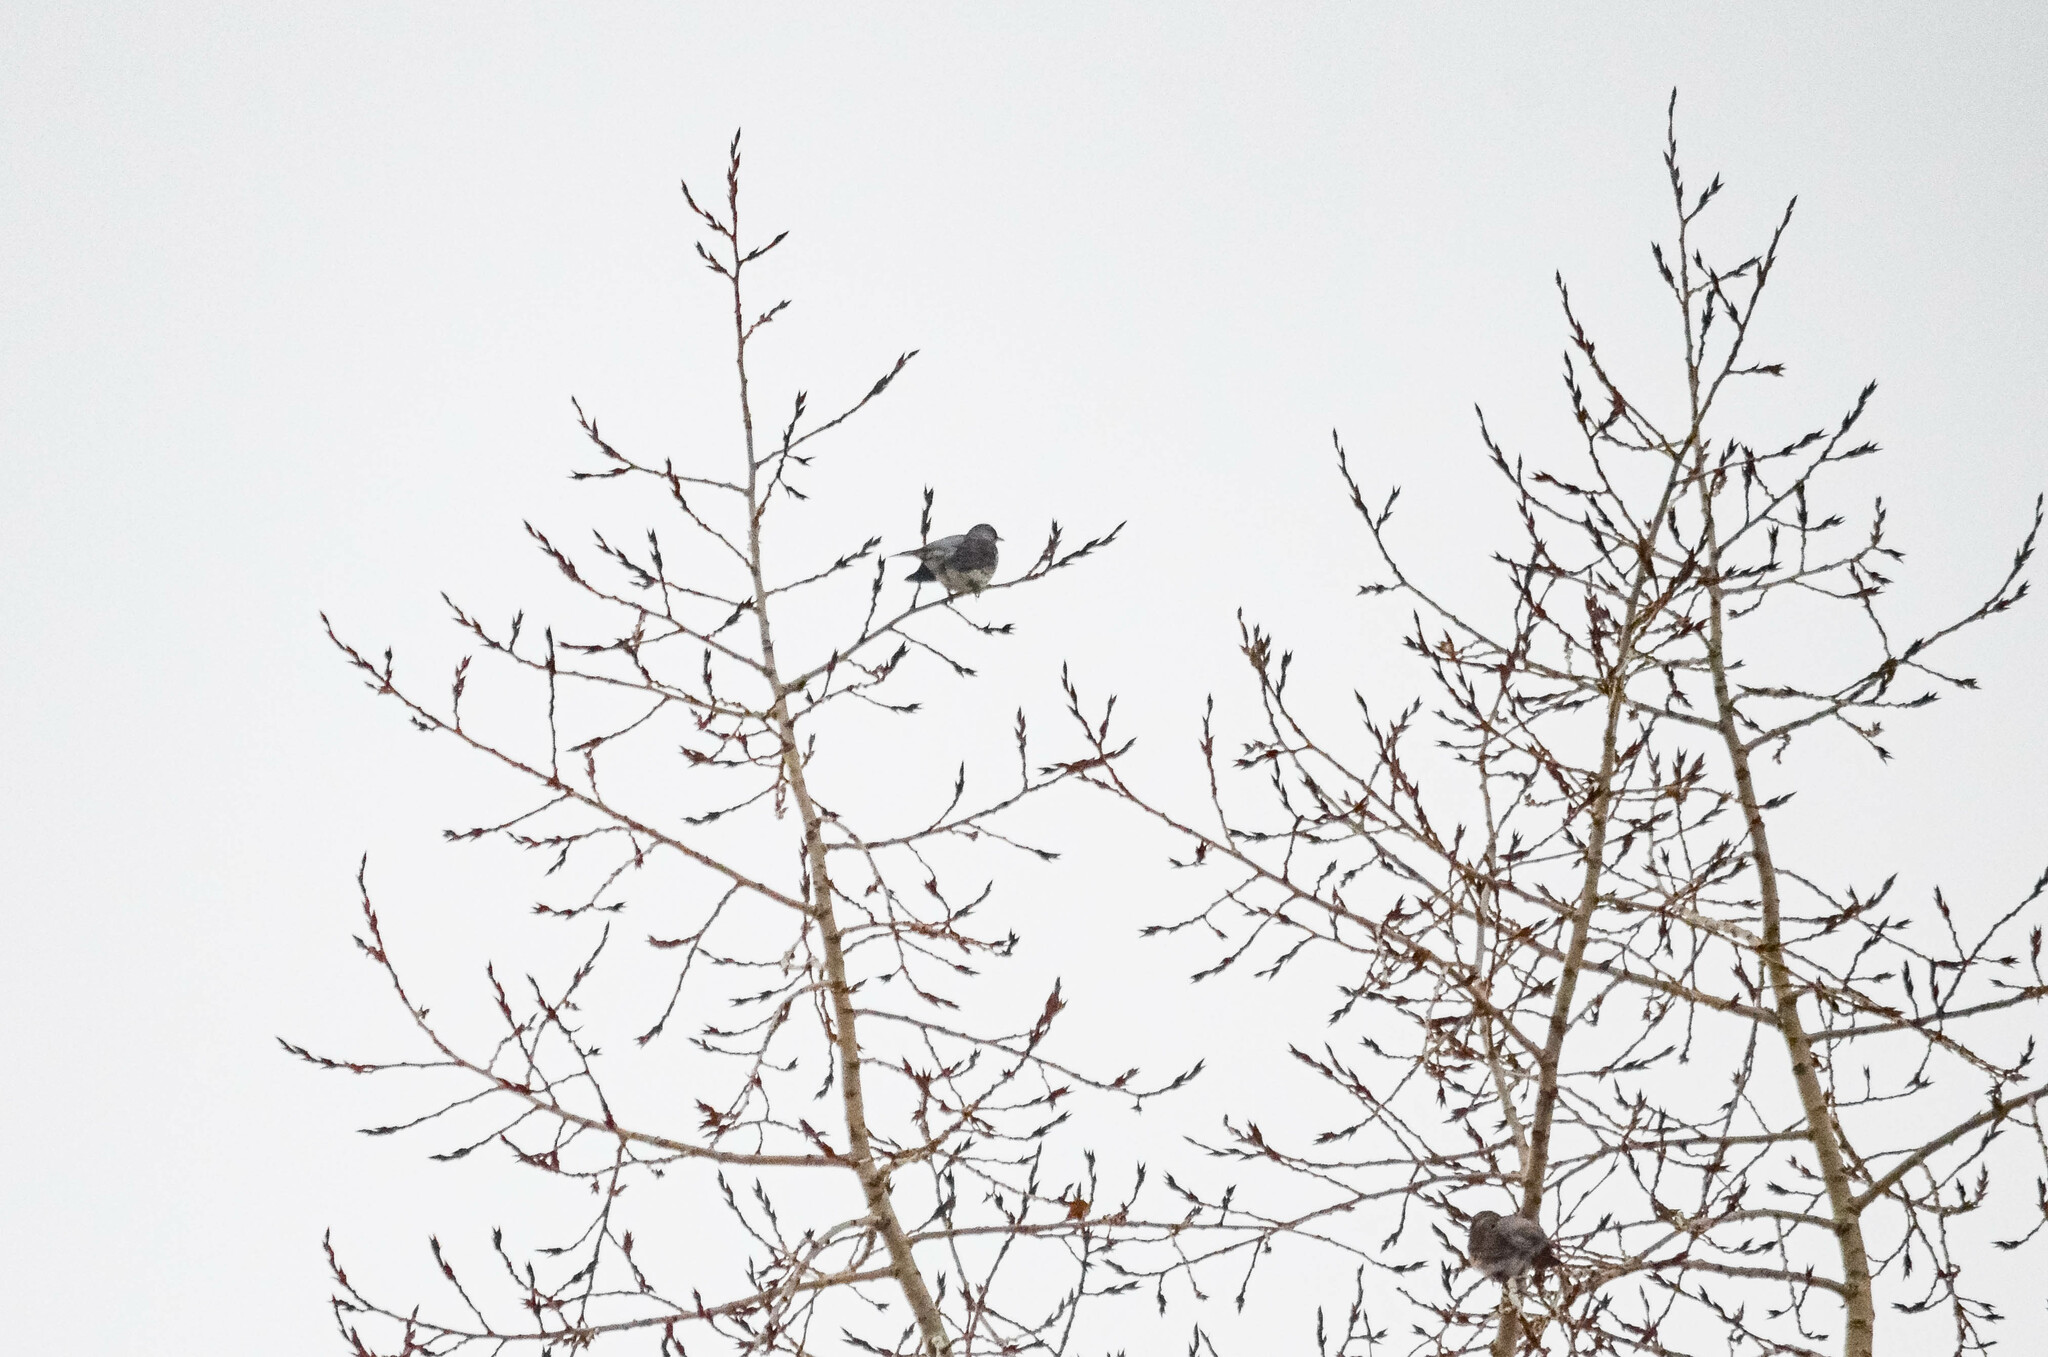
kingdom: Animalia
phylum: Chordata
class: Aves
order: Passeriformes
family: Turdidae
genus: Turdus
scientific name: Turdus pilaris
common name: Fieldfare
